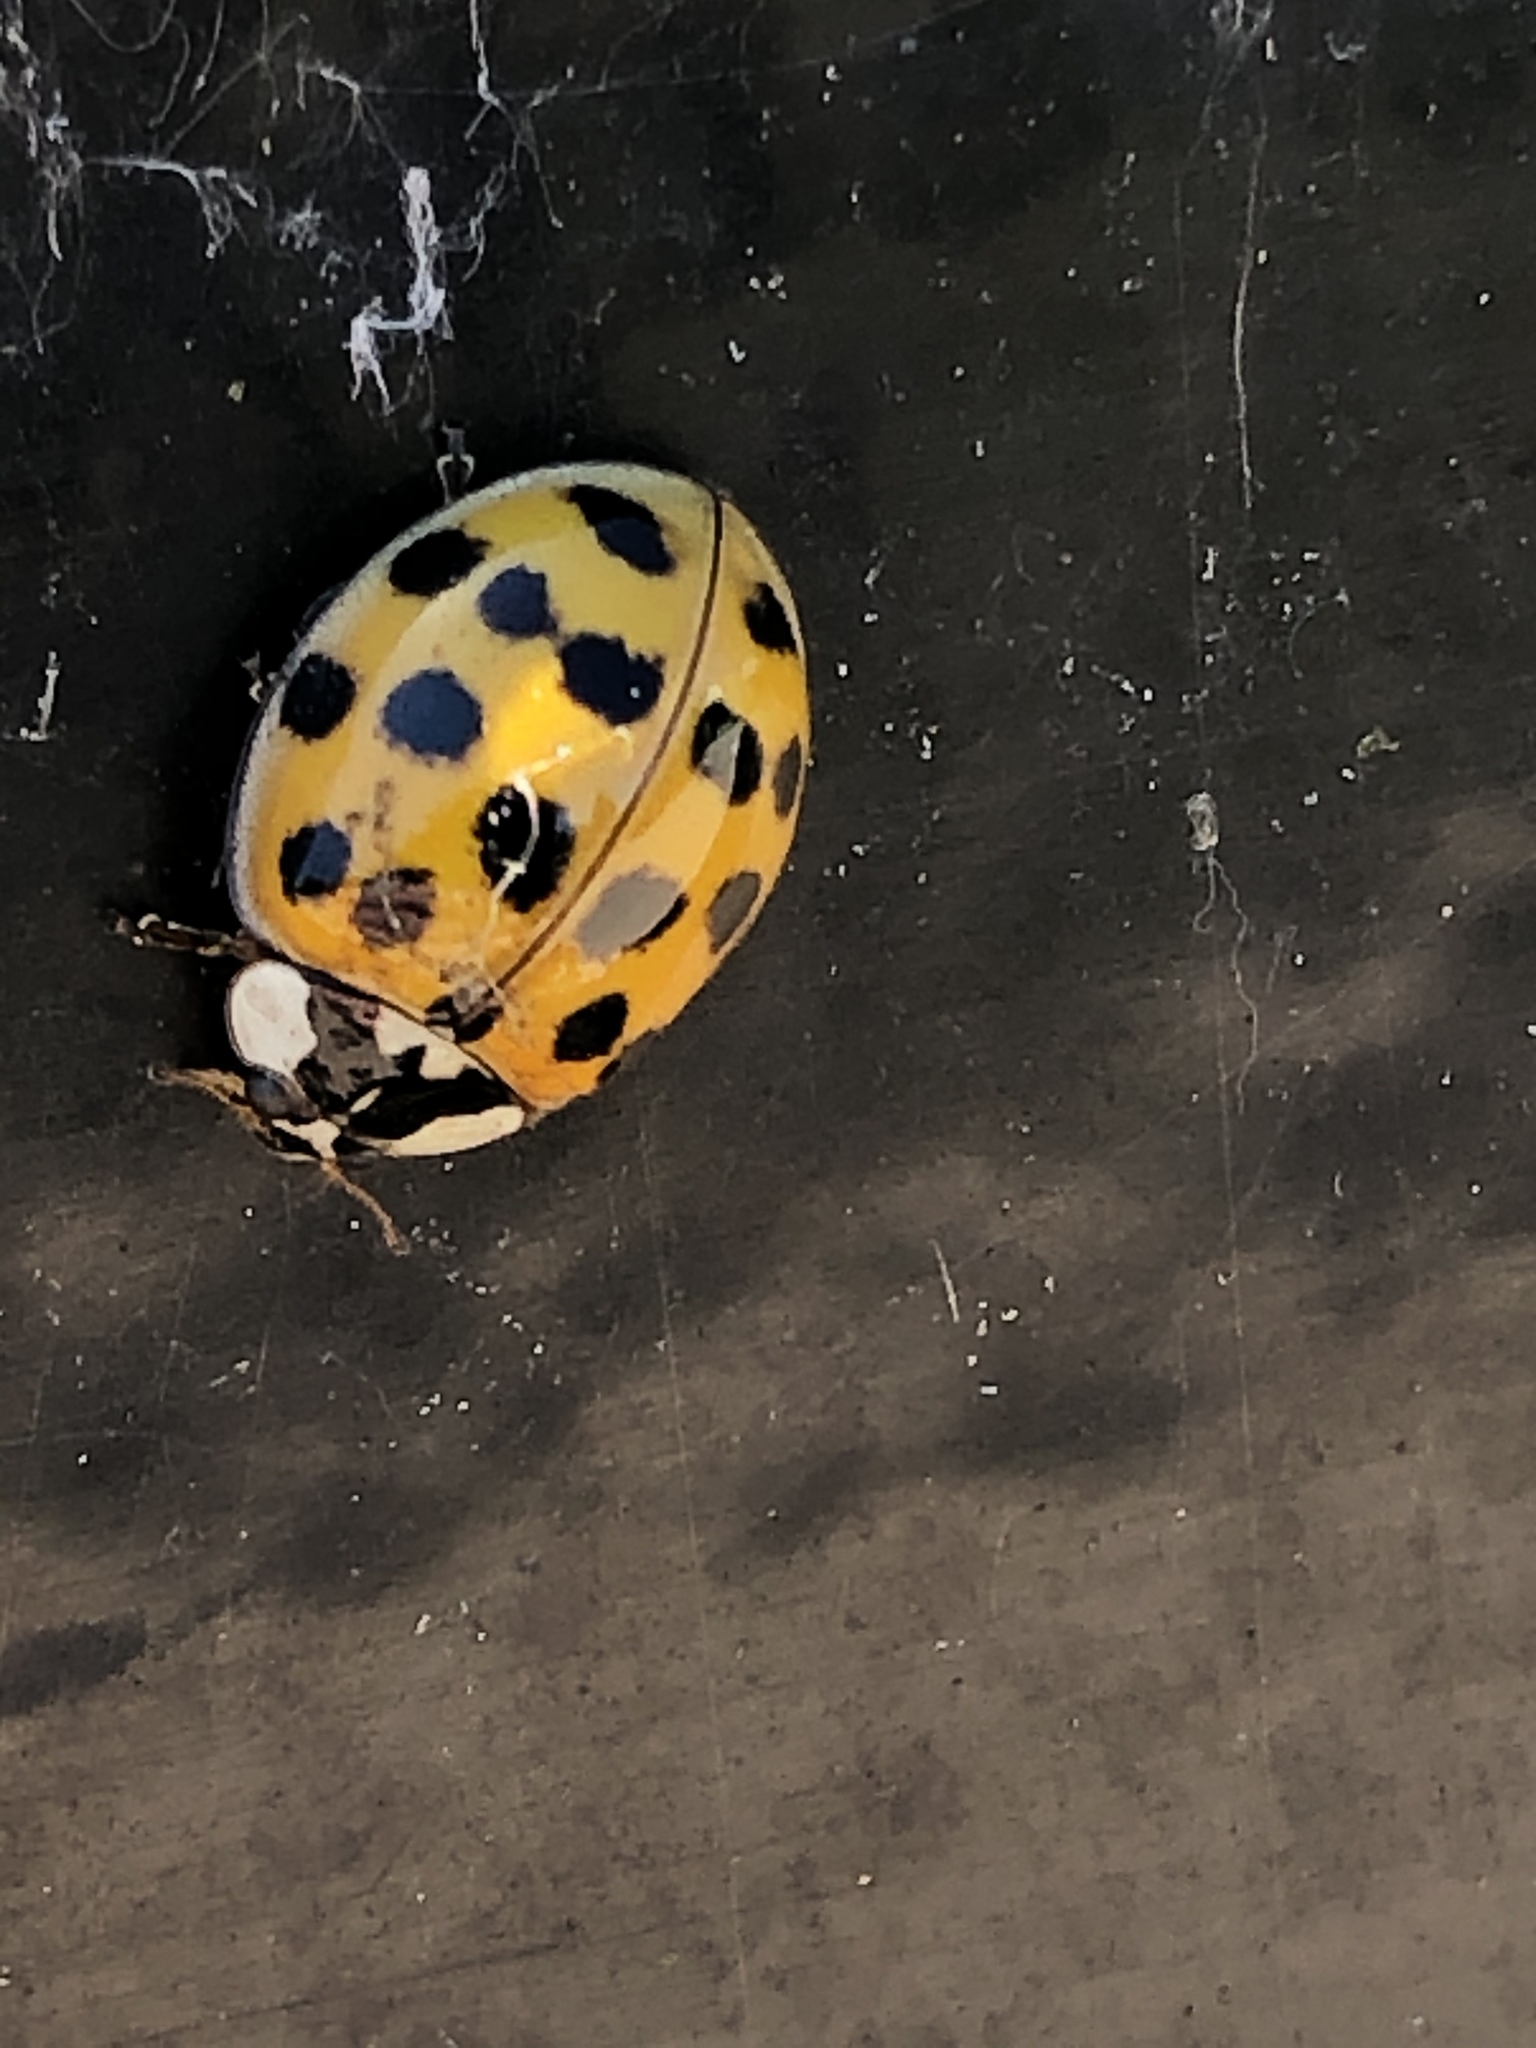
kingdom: Animalia
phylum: Arthropoda
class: Insecta
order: Coleoptera
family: Coccinellidae
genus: Harmonia
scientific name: Harmonia axyridis
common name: Harlequin ladybird
